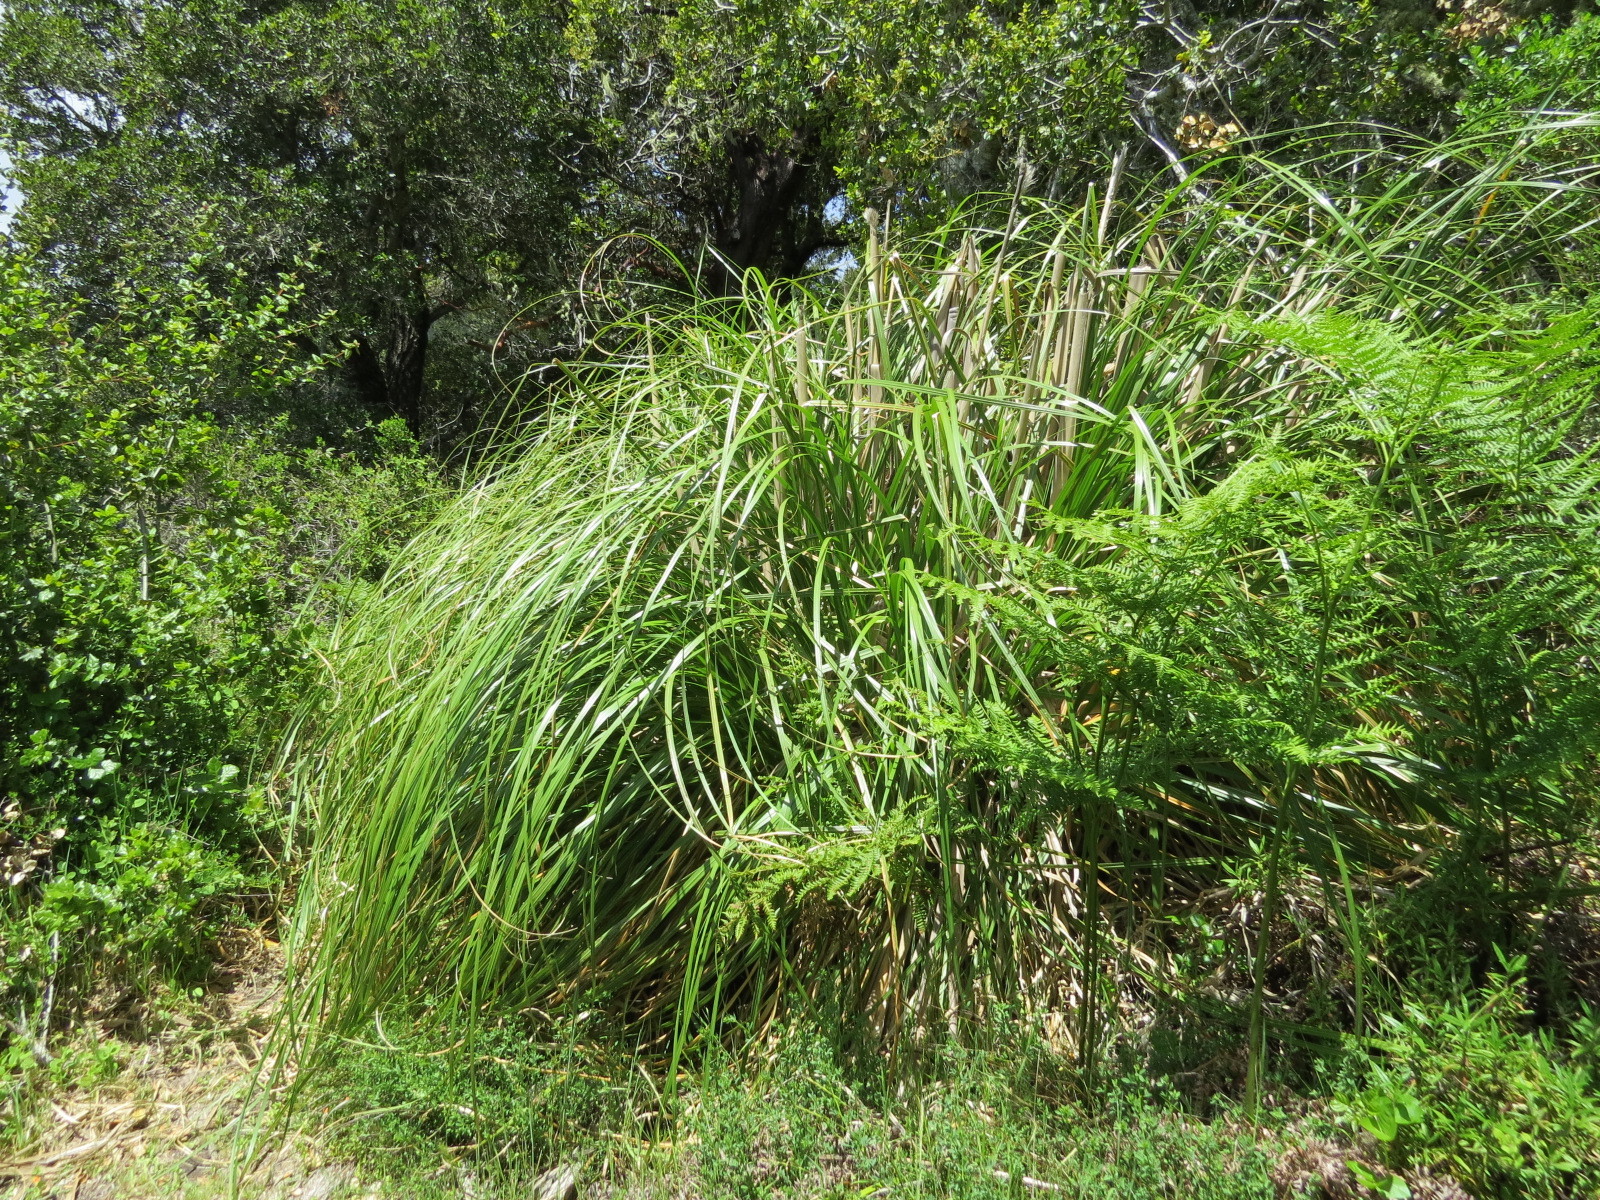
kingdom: Plantae
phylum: Tracheophyta
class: Liliopsida
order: Poales
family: Poaceae
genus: Cortaderia
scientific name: Cortaderia selloana
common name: Uruguayan pampas grass
